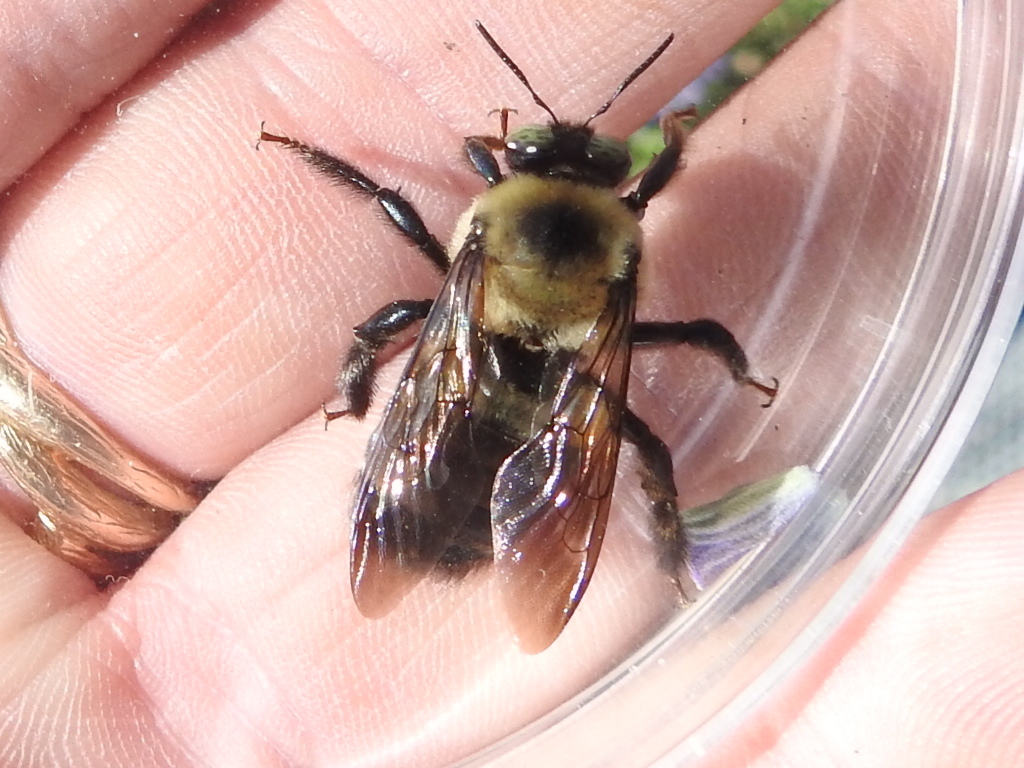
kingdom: Animalia
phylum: Arthropoda
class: Insecta
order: Hymenoptera
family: Apidae
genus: Xylocopa
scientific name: Xylocopa virginica
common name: Carpenter bee
